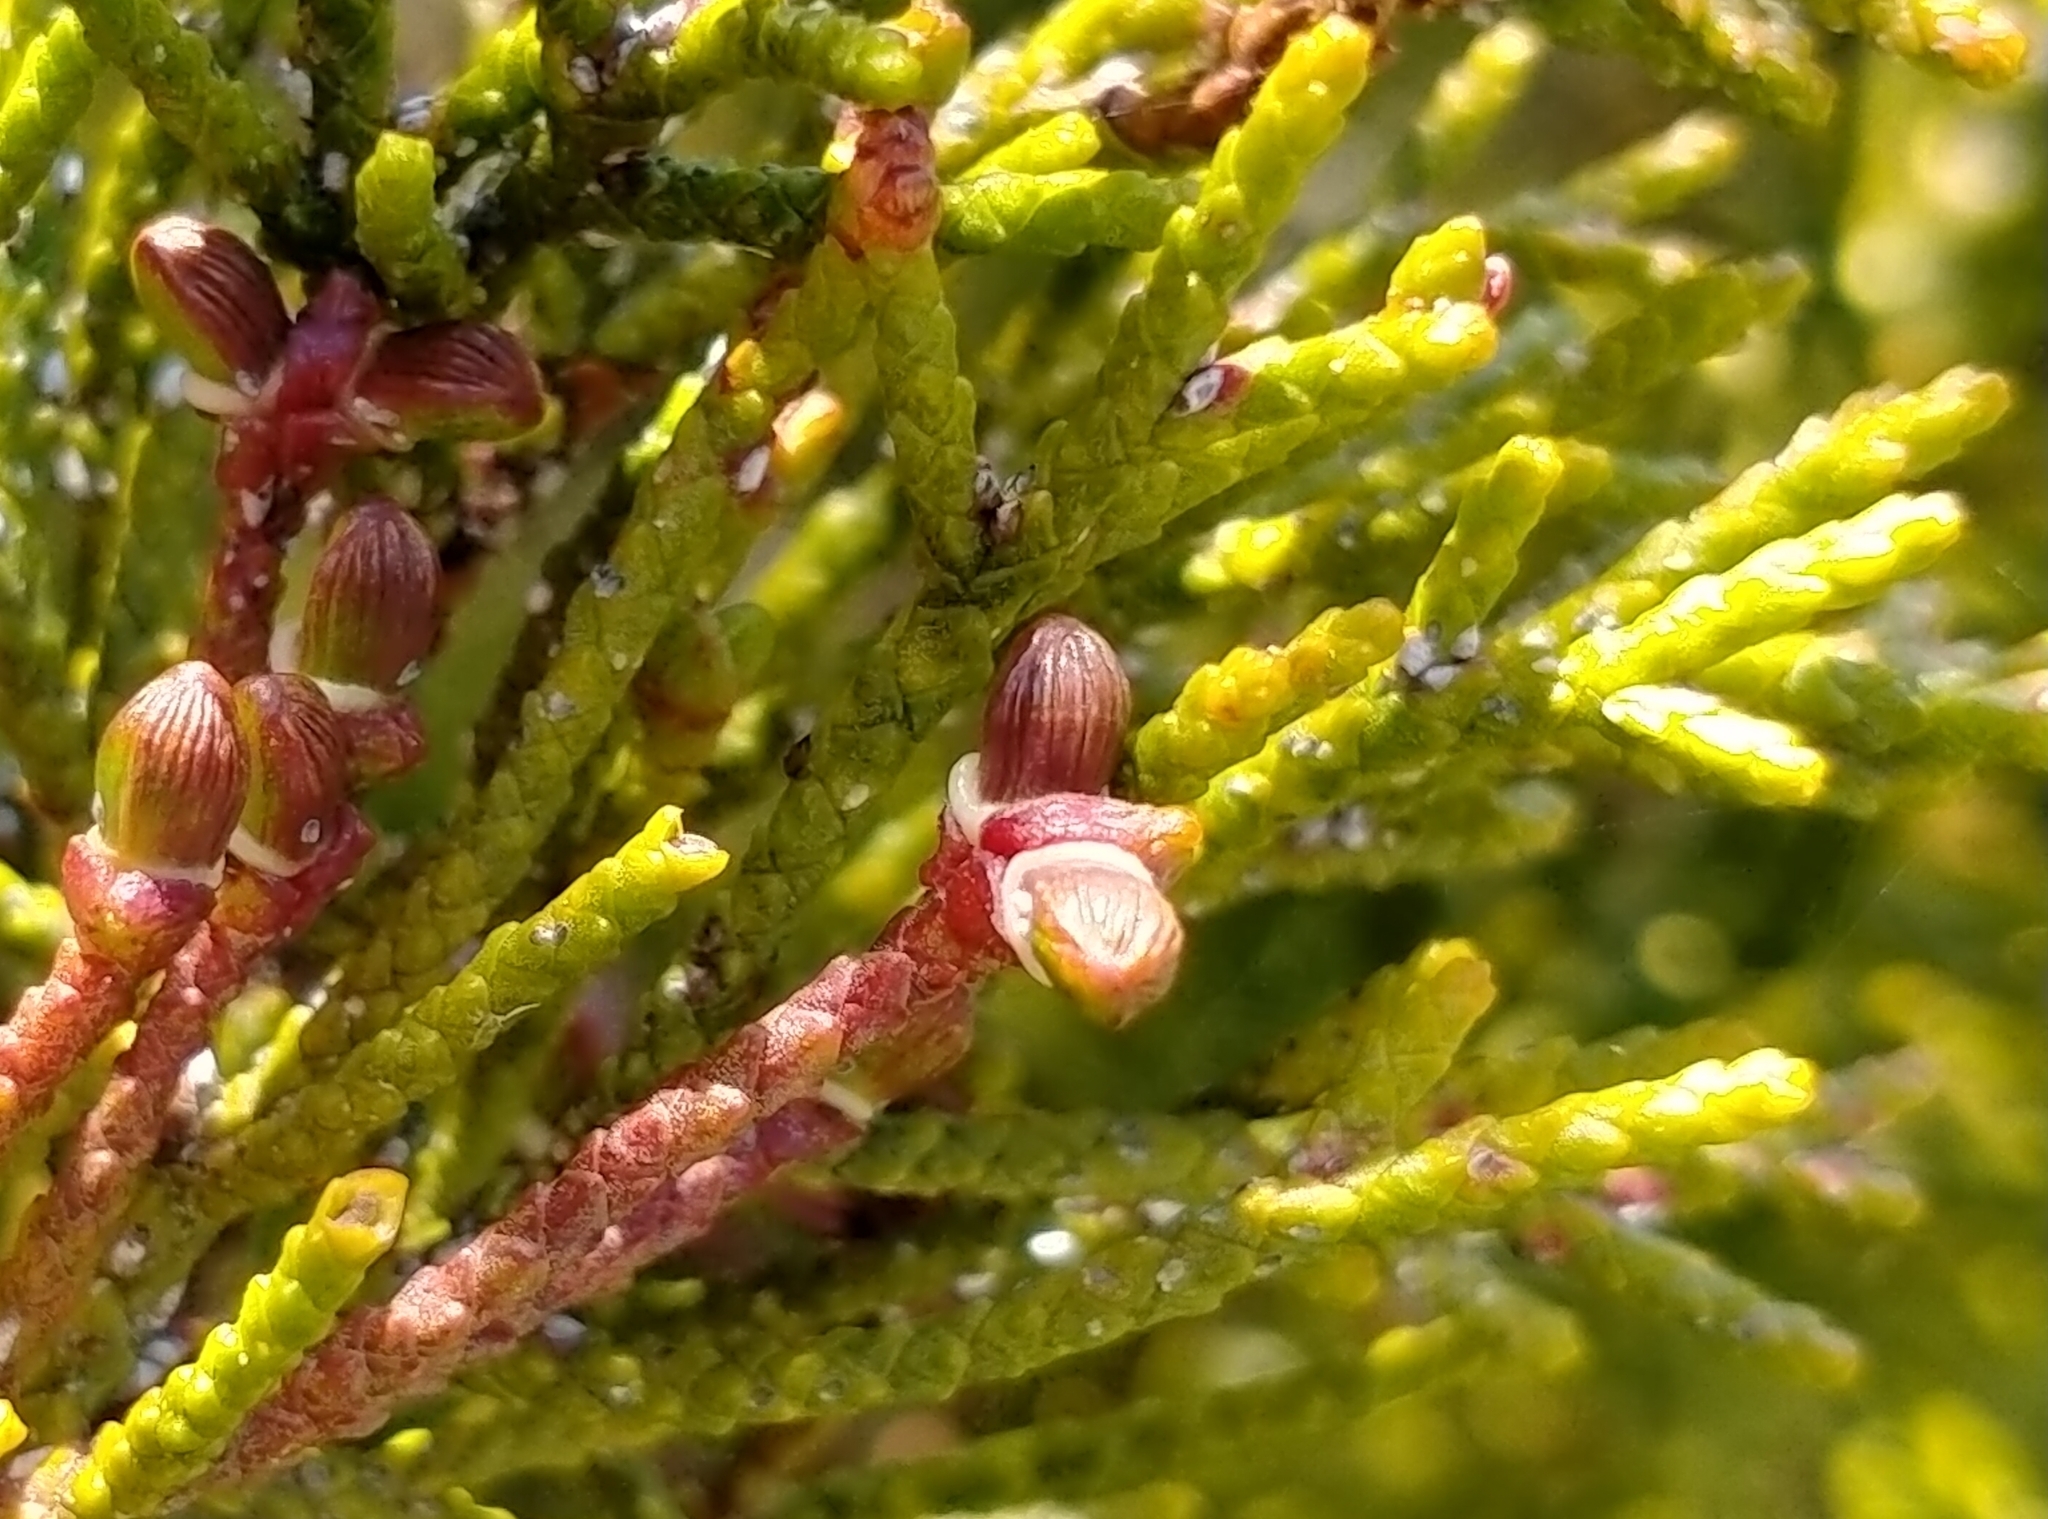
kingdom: Plantae
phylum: Tracheophyta
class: Pinopsida
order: Pinales
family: Podocarpaceae
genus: Halocarpus
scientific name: Halocarpus bidwillii
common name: Bog pine
